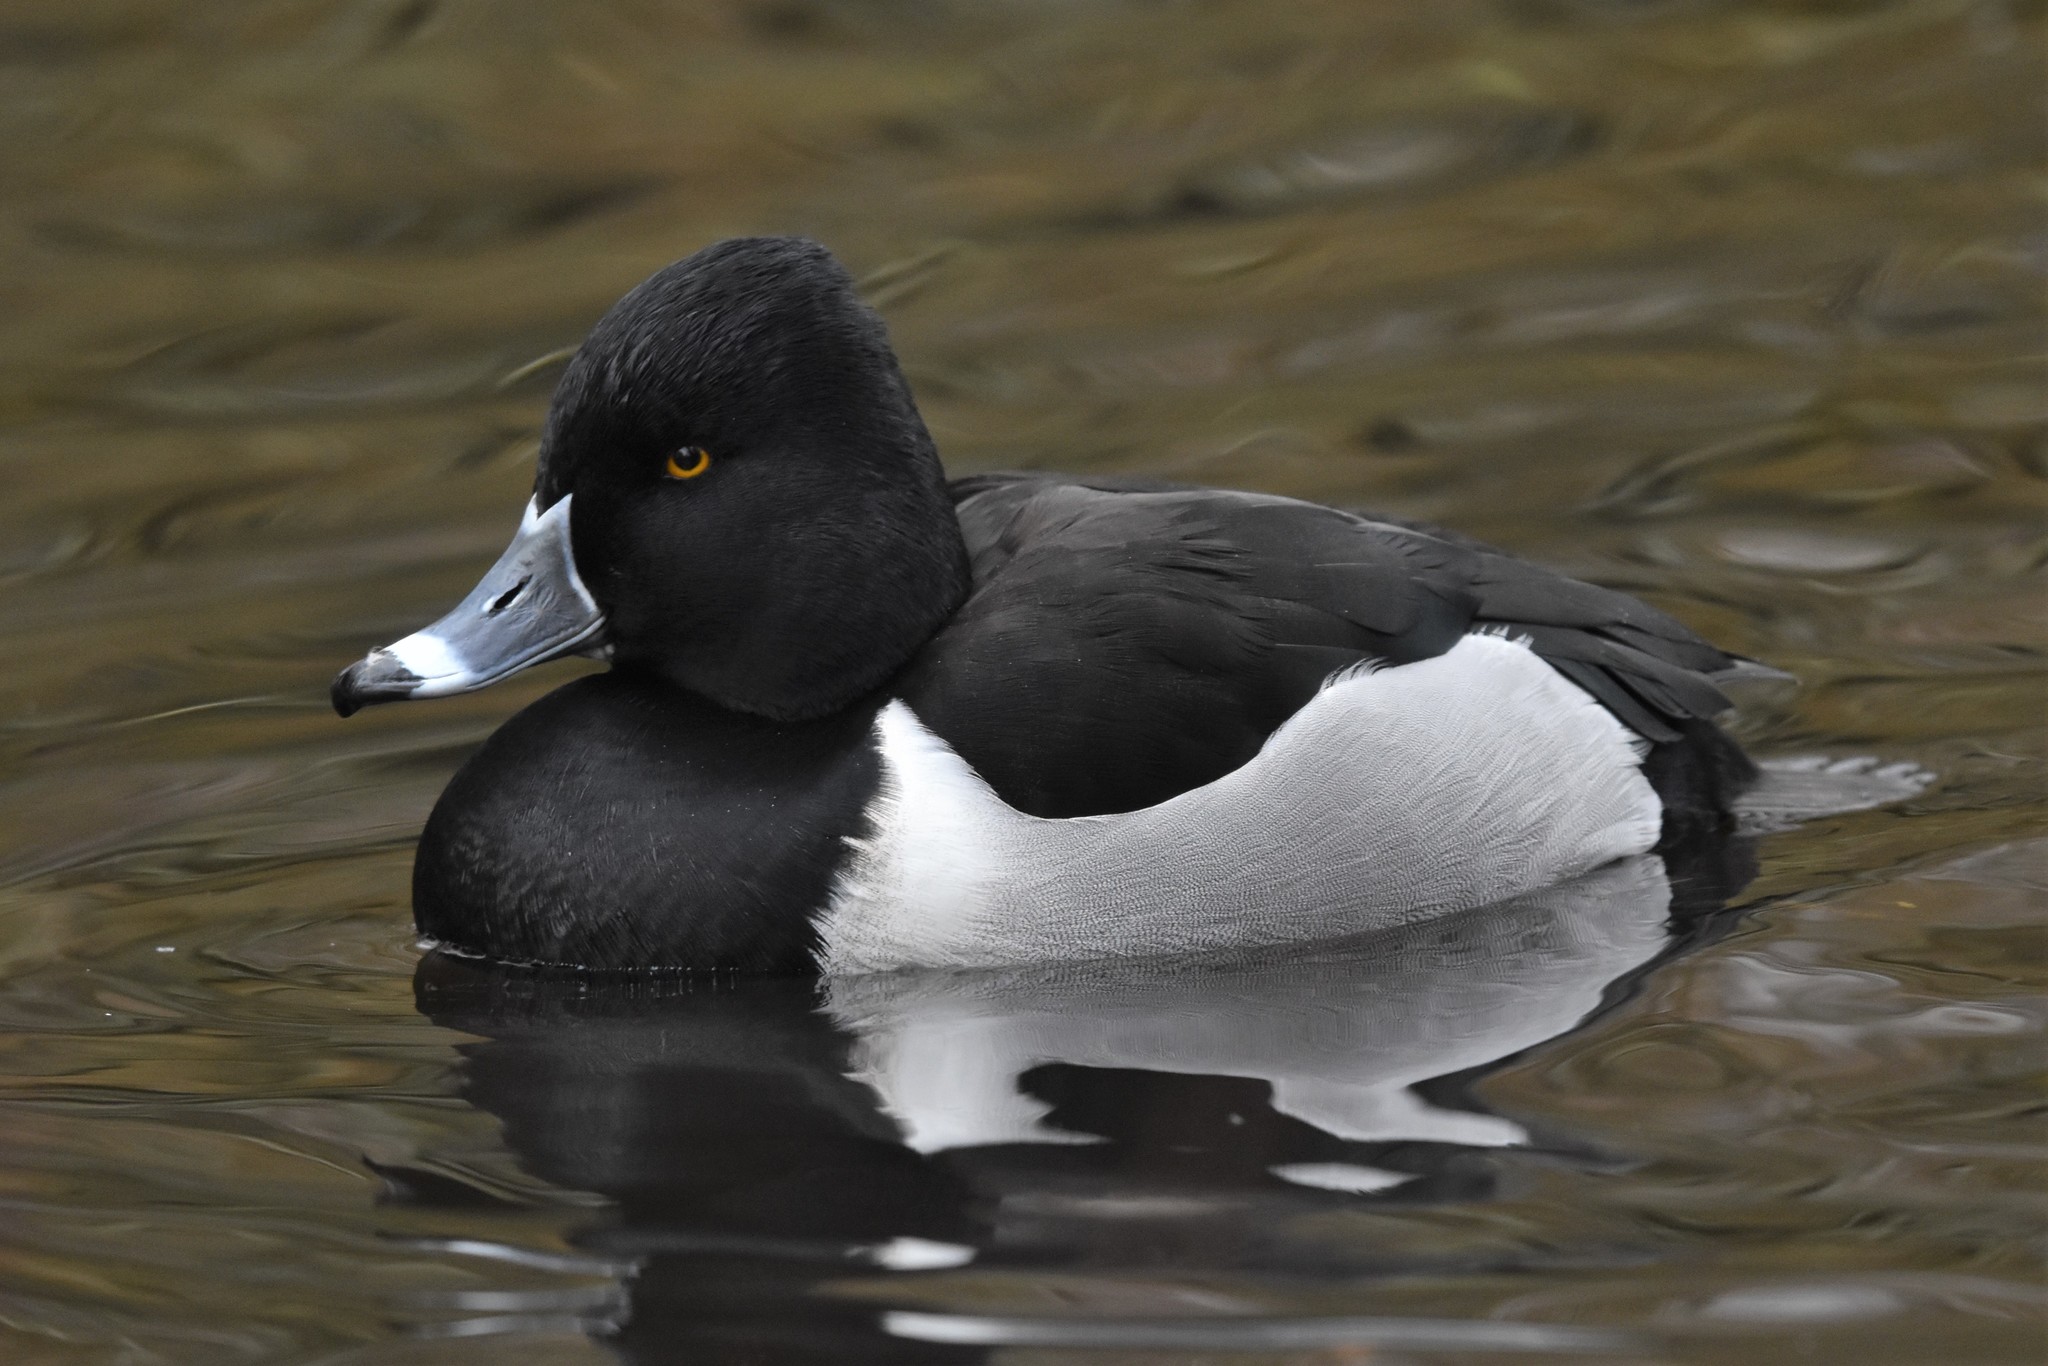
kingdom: Animalia
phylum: Chordata
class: Aves
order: Anseriformes
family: Anatidae
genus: Aythya
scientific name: Aythya collaris
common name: Ring-necked duck
